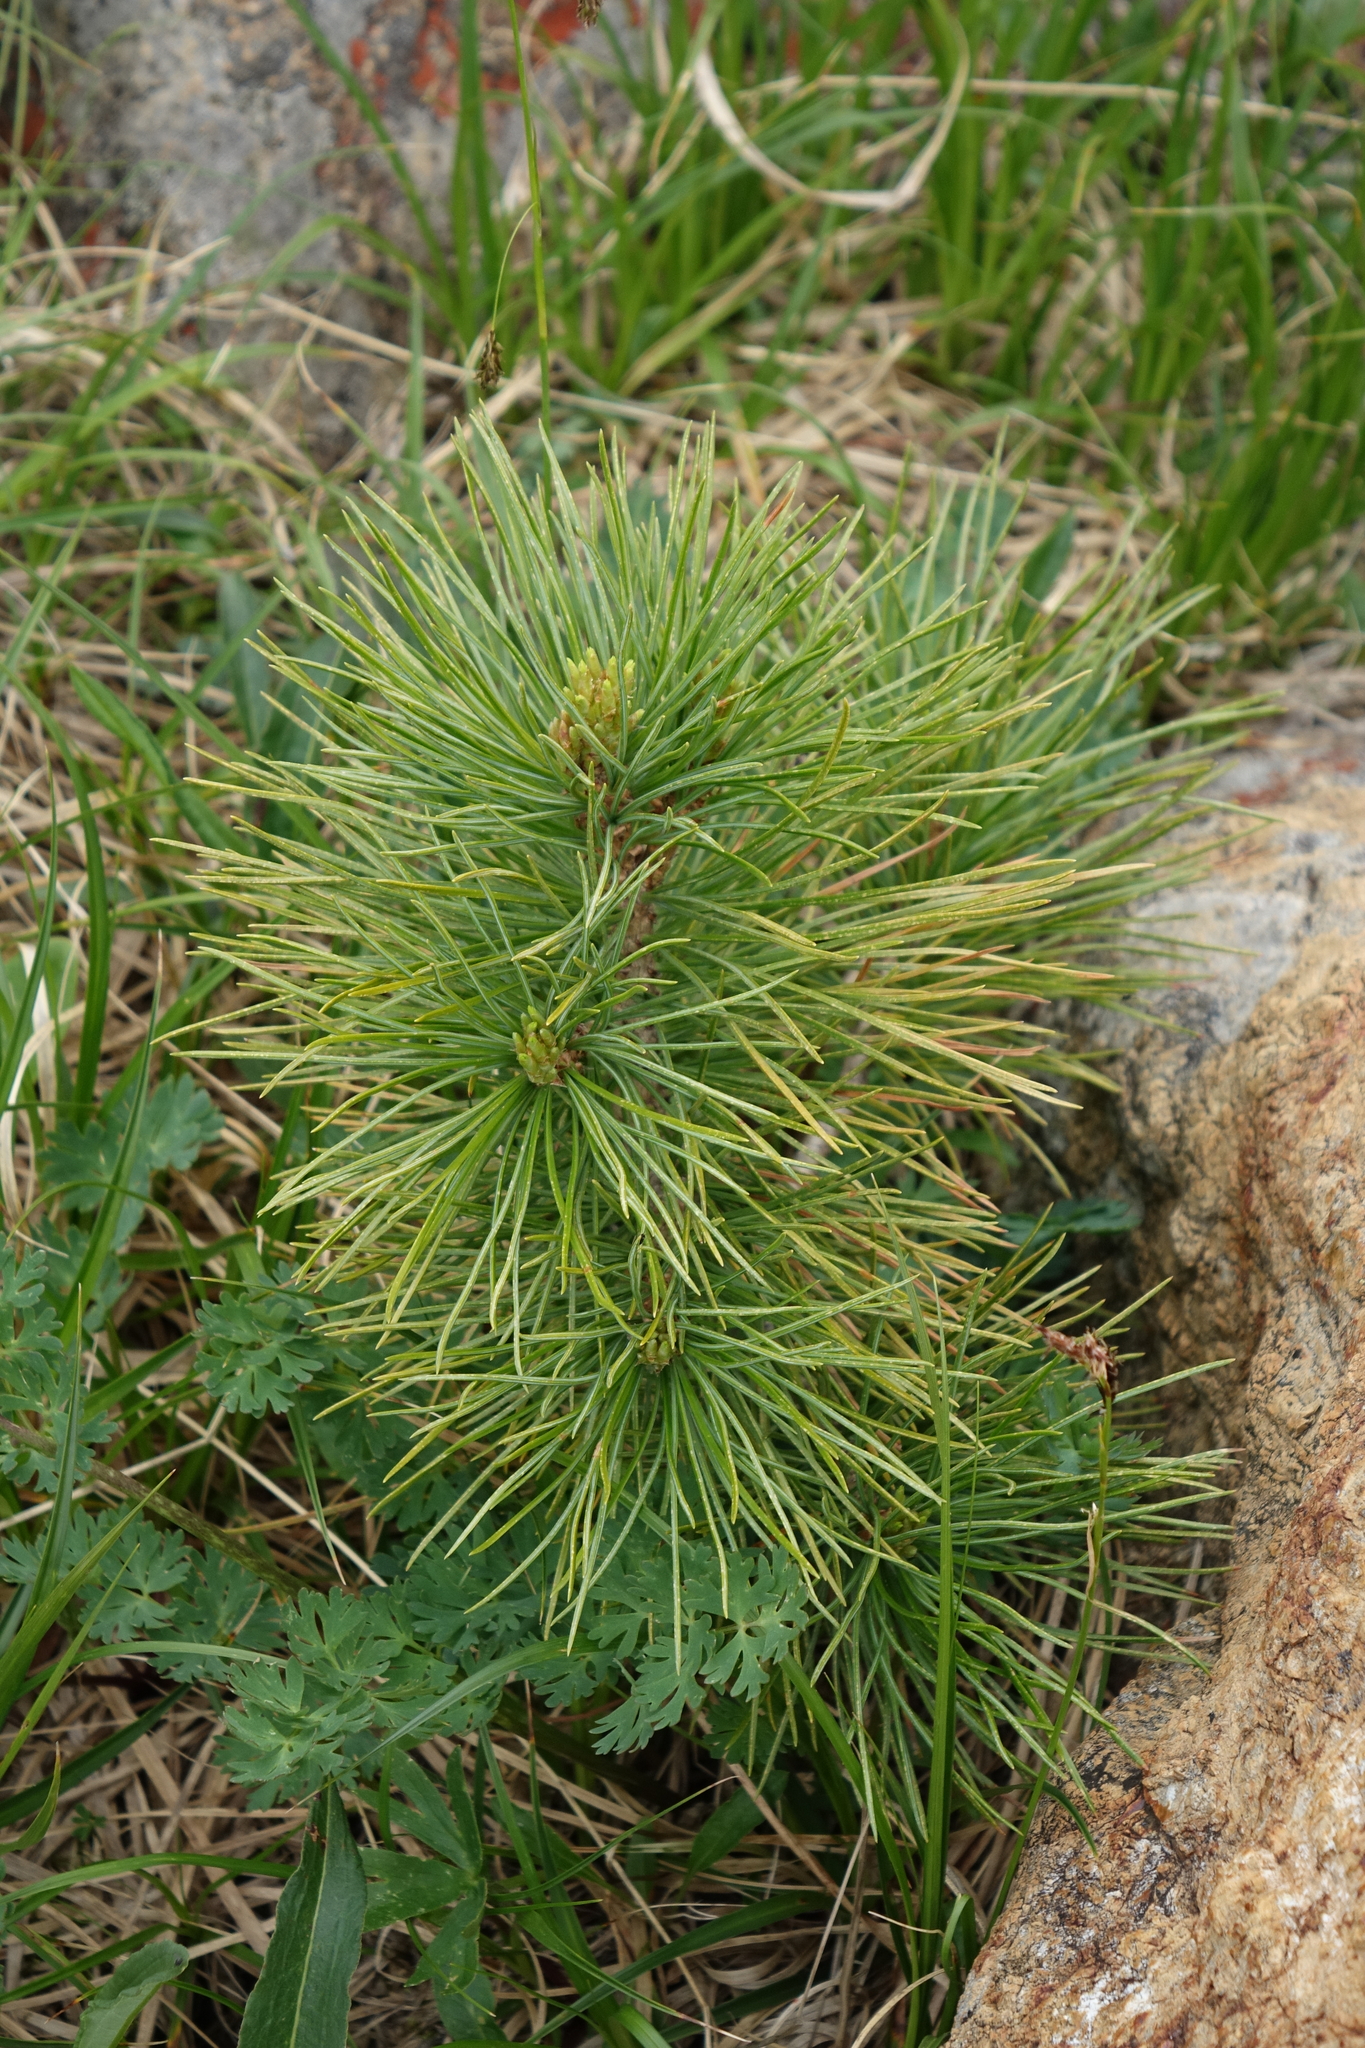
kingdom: Plantae
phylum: Tracheophyta
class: Pinopsida
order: Pinales
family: Pinaceae
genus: Pinus
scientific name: Pinus sibirica
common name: Siberian pine
